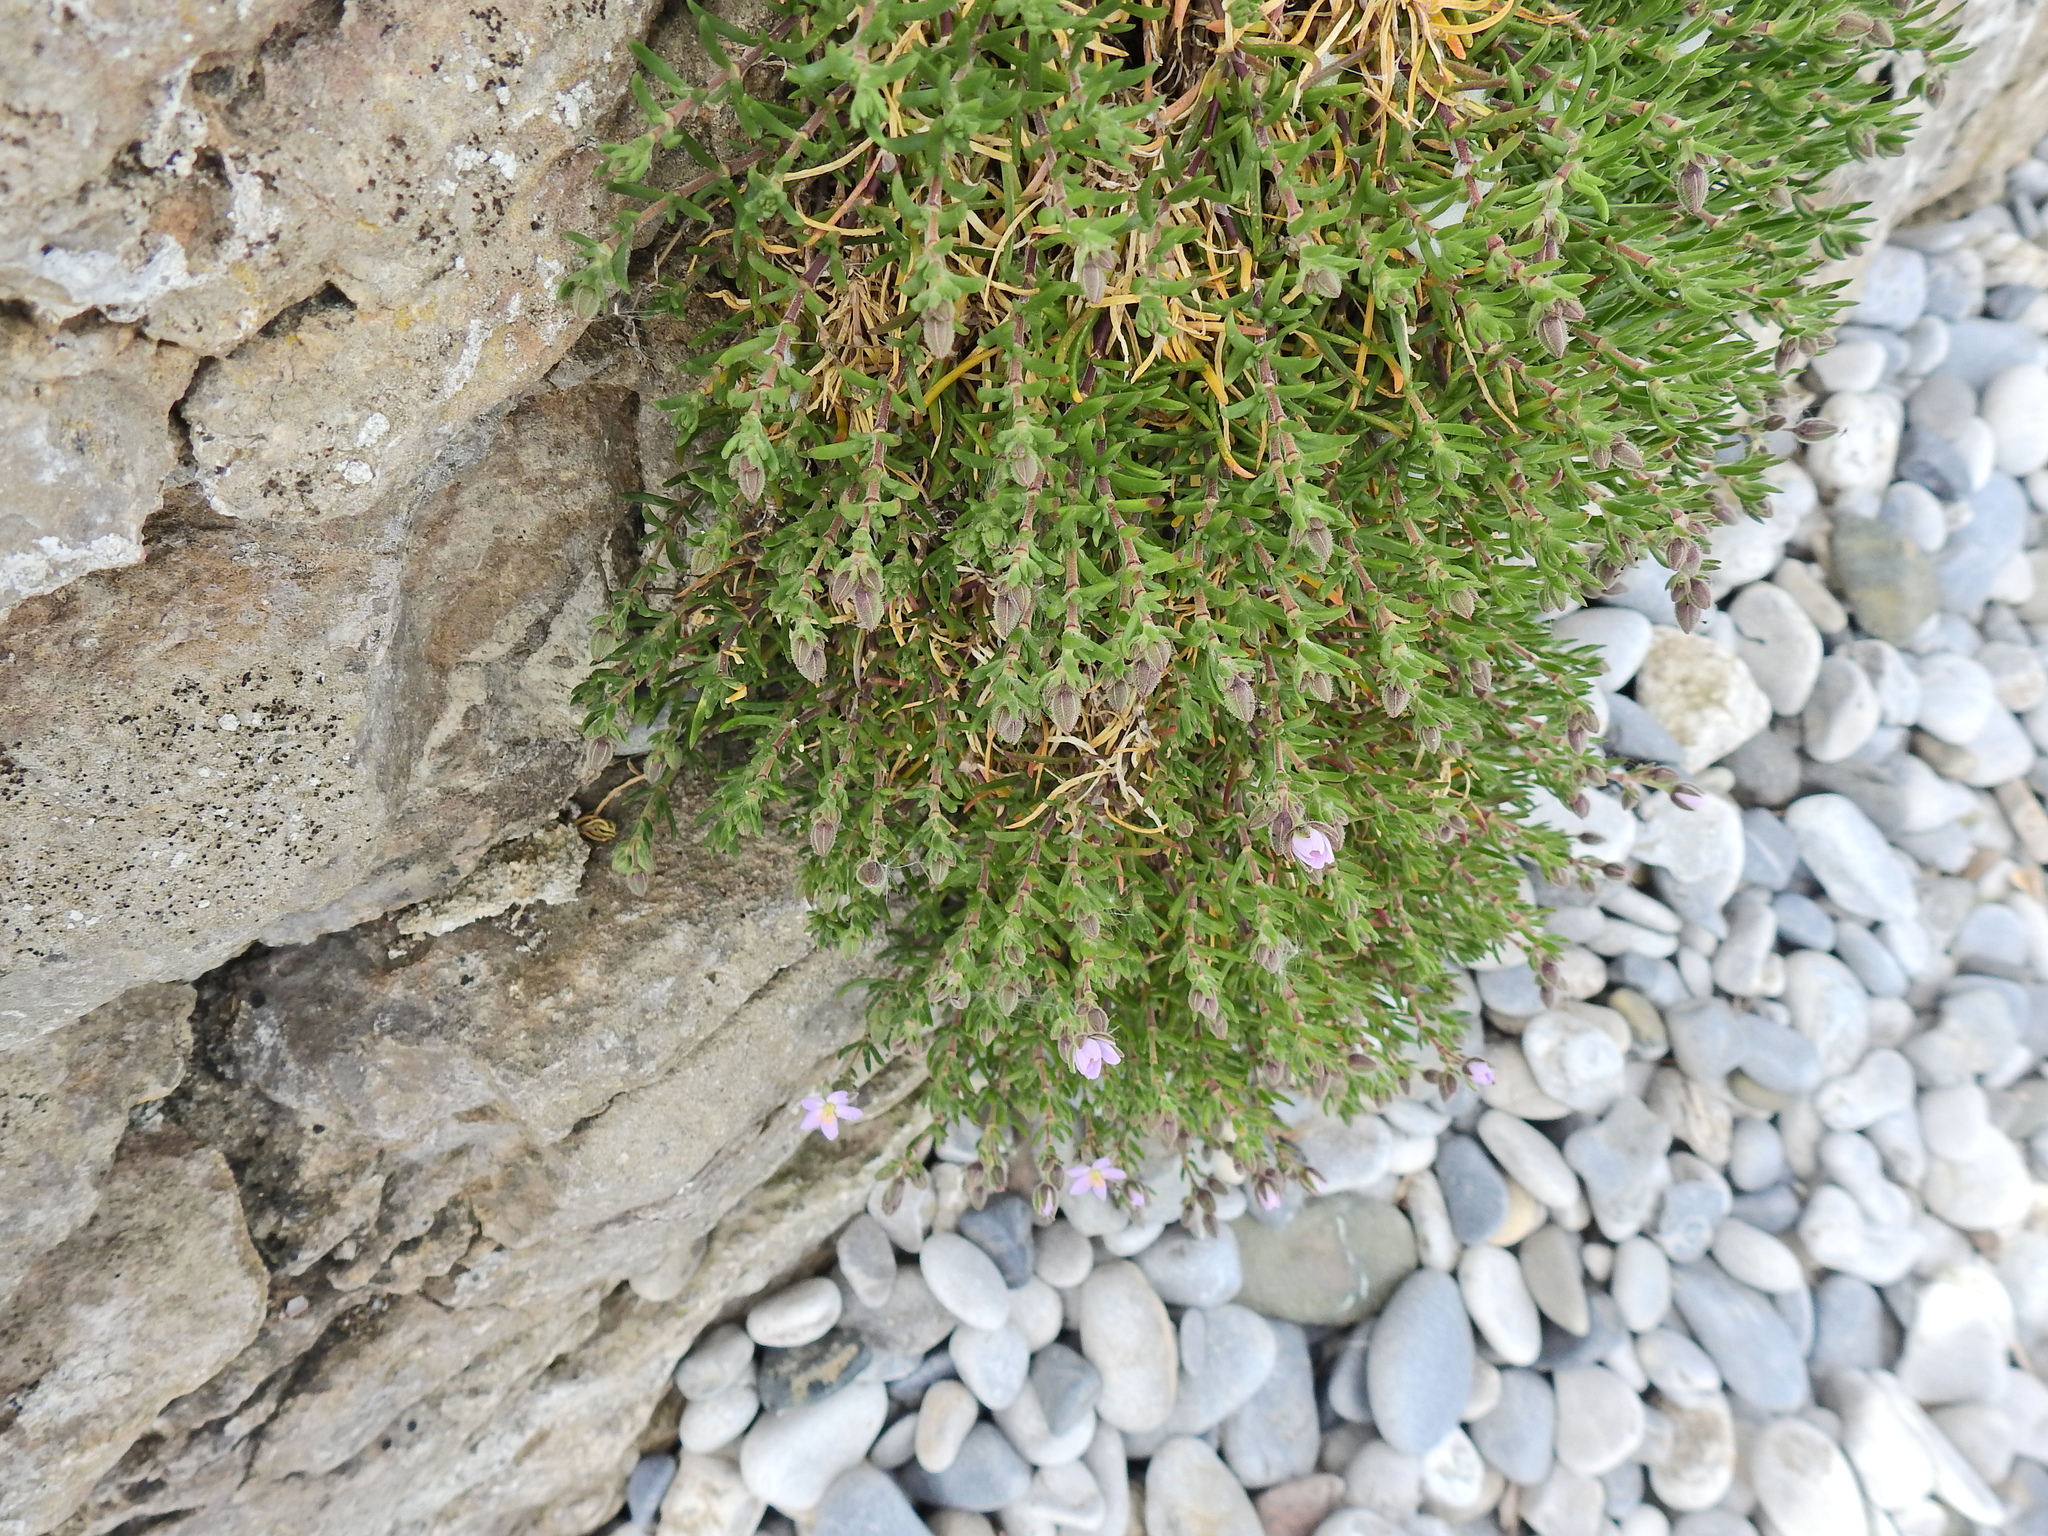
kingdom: Plantae
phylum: Tracheophyta
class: Magnoliopsida
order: Caryophyllales
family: Caryophyllaceae
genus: Spergularia
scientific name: Spergularia rupicola
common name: Cliff sand-spurrey
